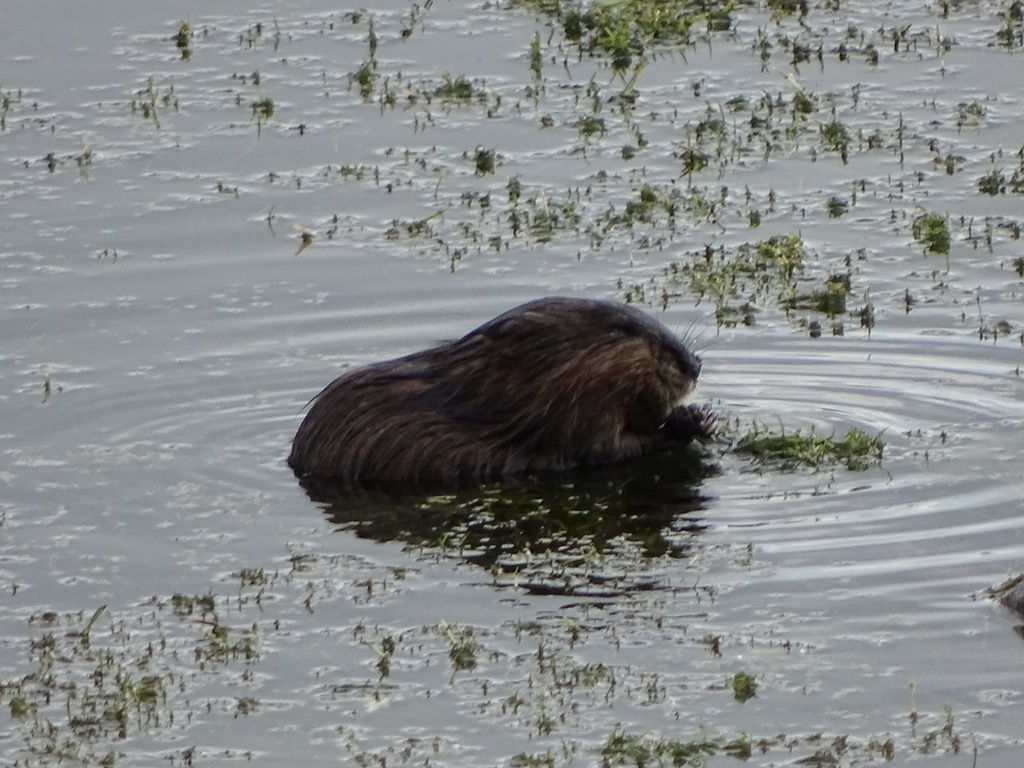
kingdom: Animalia
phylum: Chordata
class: Mammalia
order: Rodentia
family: Cricetidae
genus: Ondatra
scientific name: Ondatra zibethicus
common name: Muskrat
